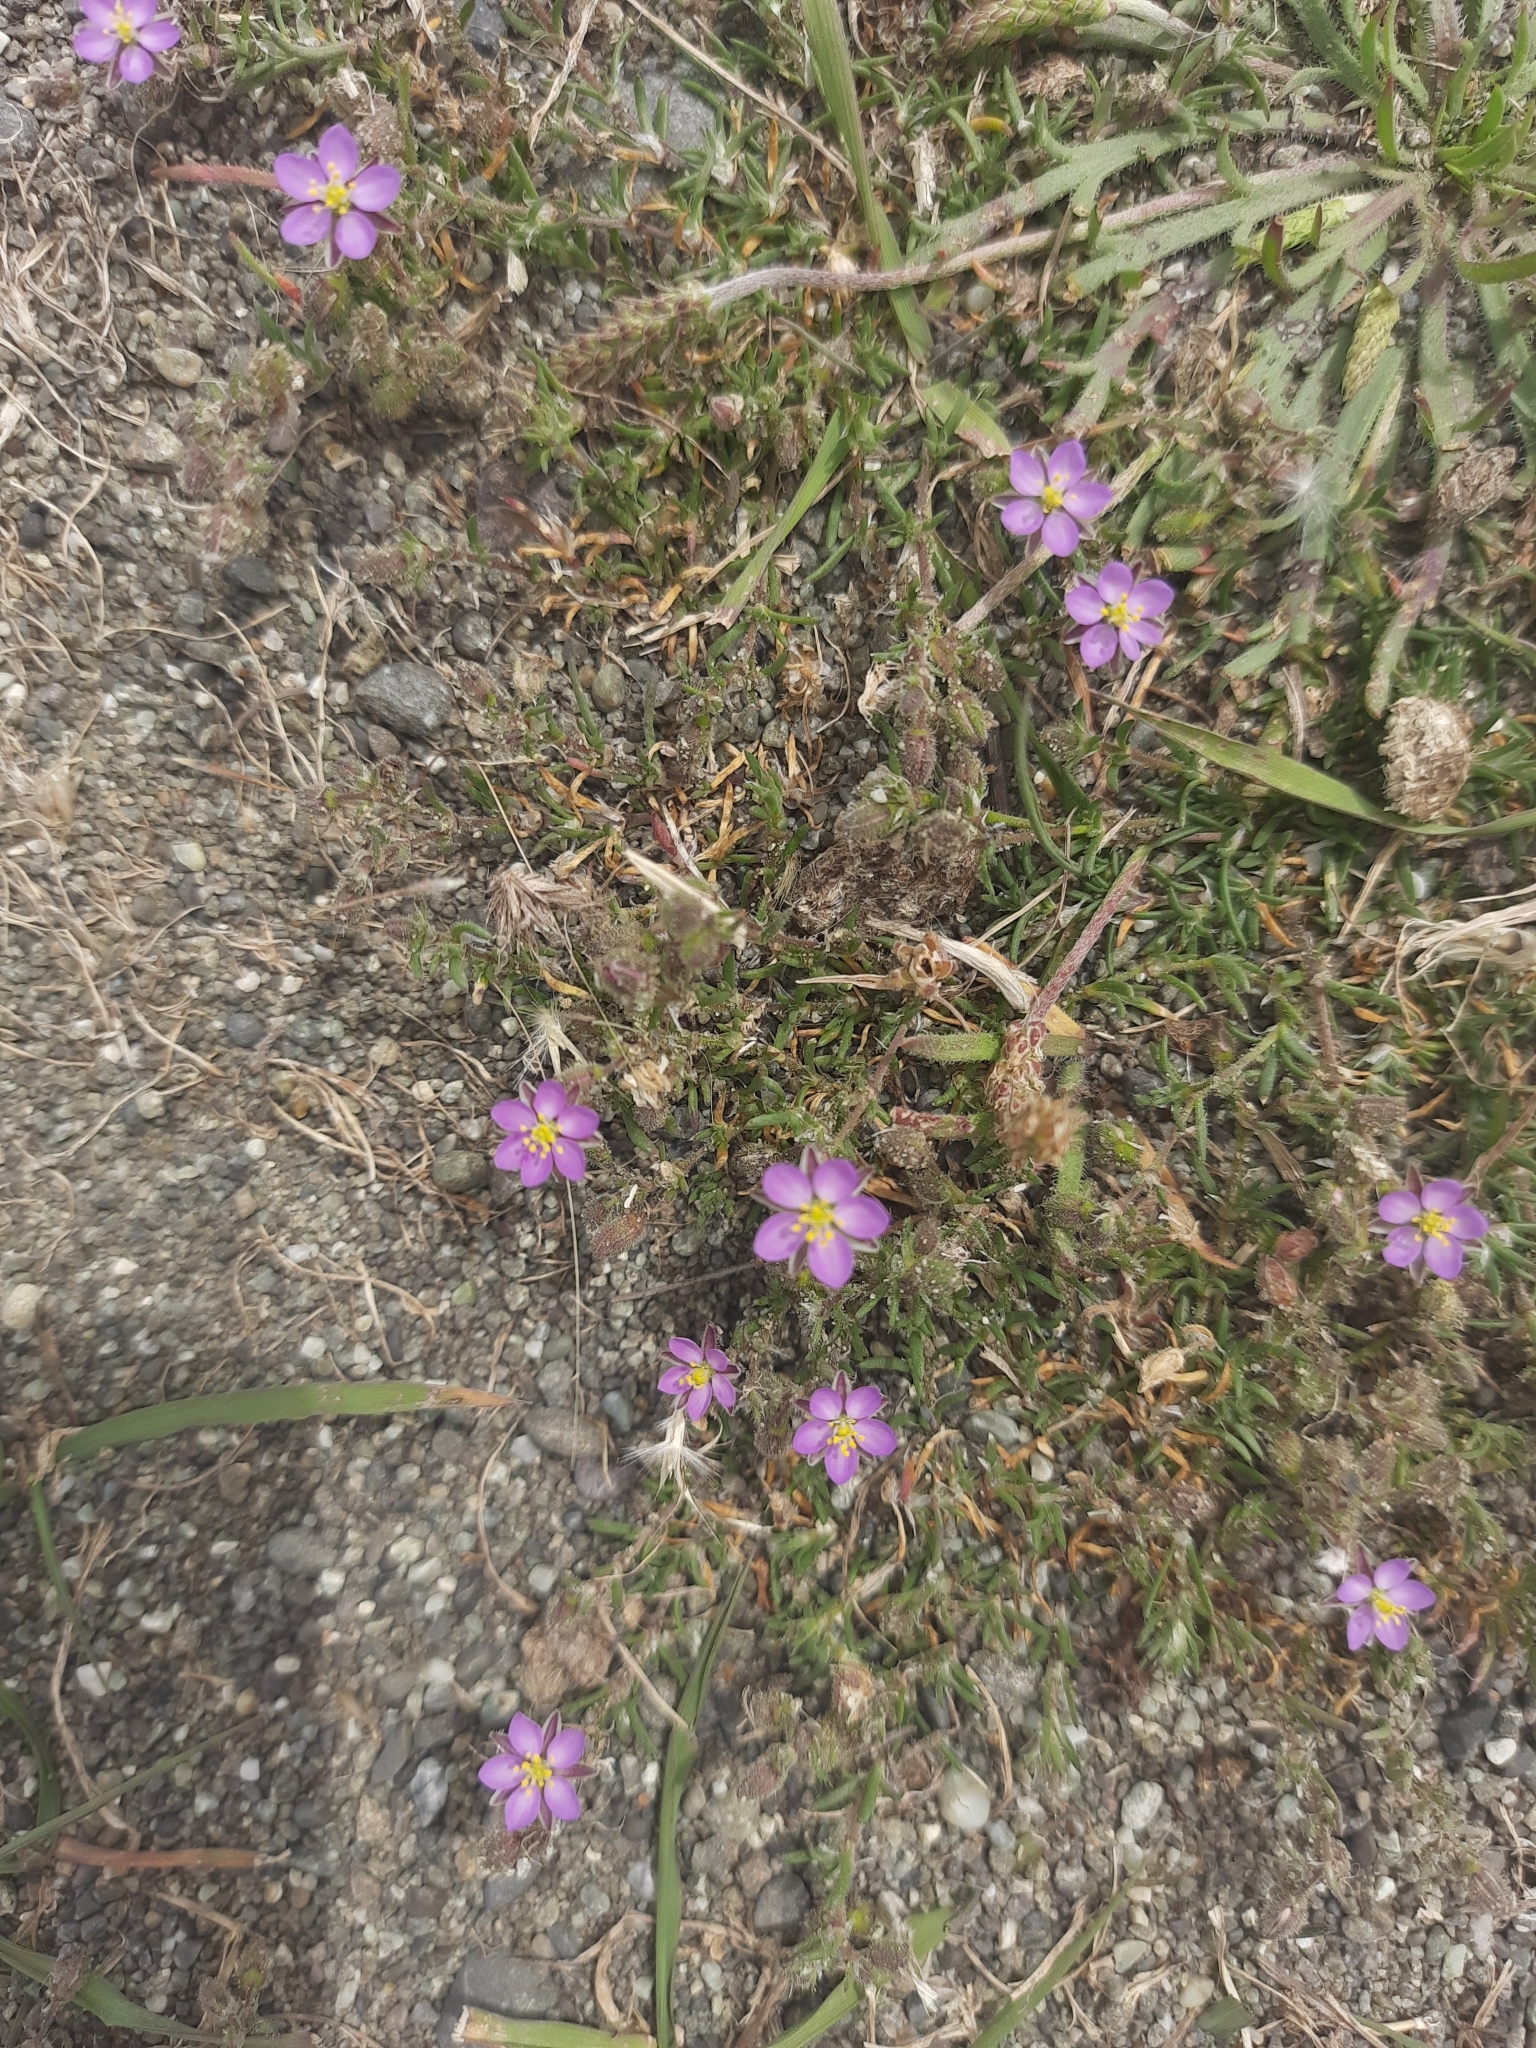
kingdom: Plantae
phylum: Tracheophyta
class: Magnoliopsida
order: Caryophyllales
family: Caryophyllaceae
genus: Spergularia
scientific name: Spergularia rubra
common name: Red sand-spurrey
